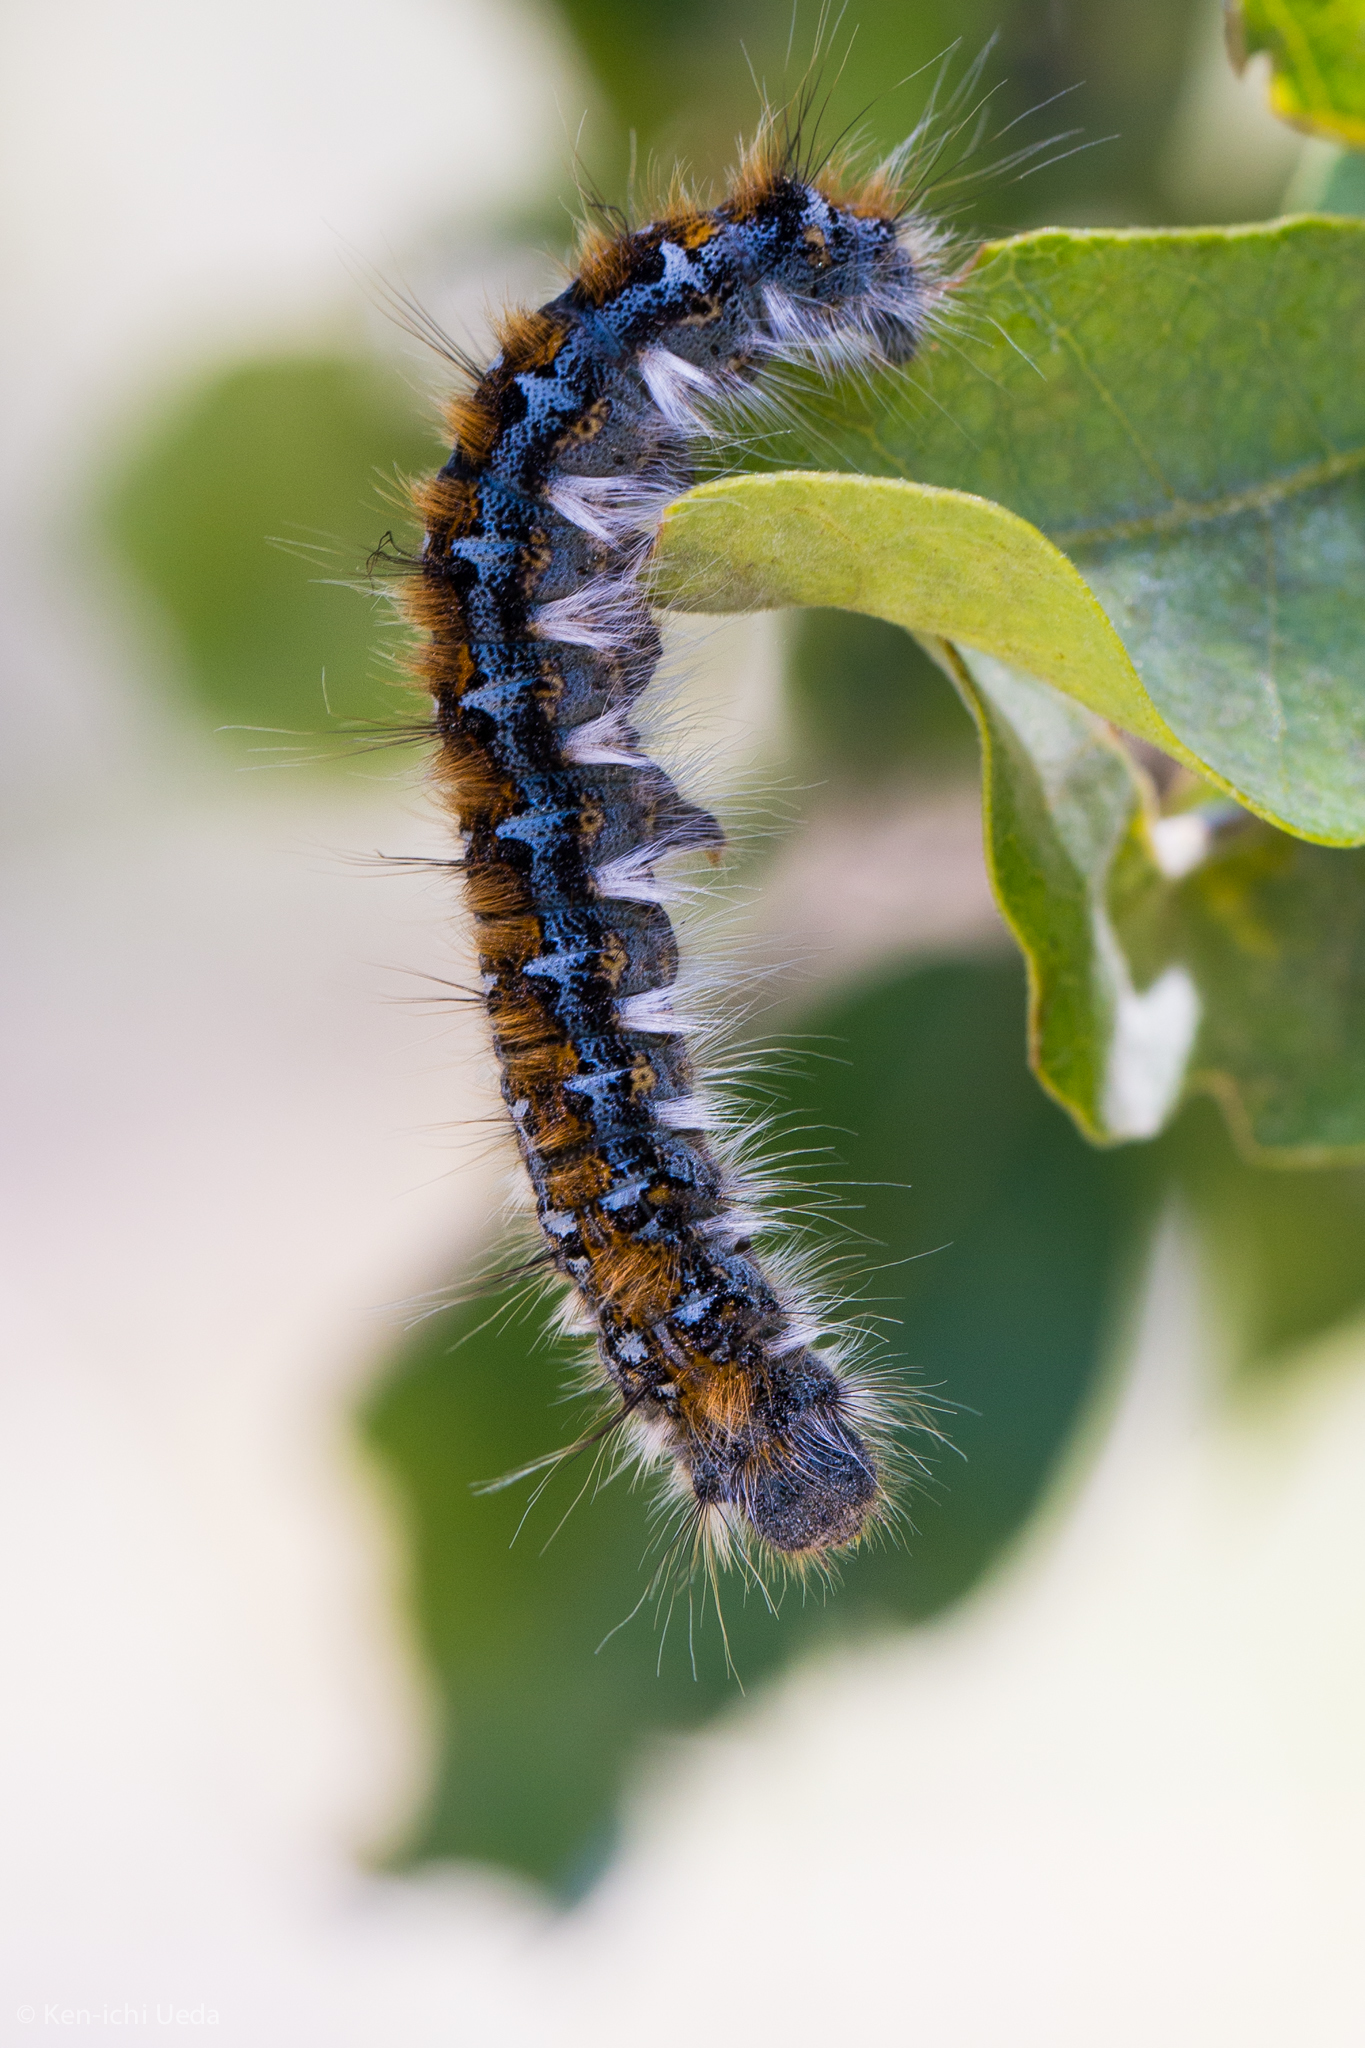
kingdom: Animalia
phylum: Arthropoda
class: Insecta
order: Lepidoptera
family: Lasiocampidae
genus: Malacosoma
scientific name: Malacosoma constricta
